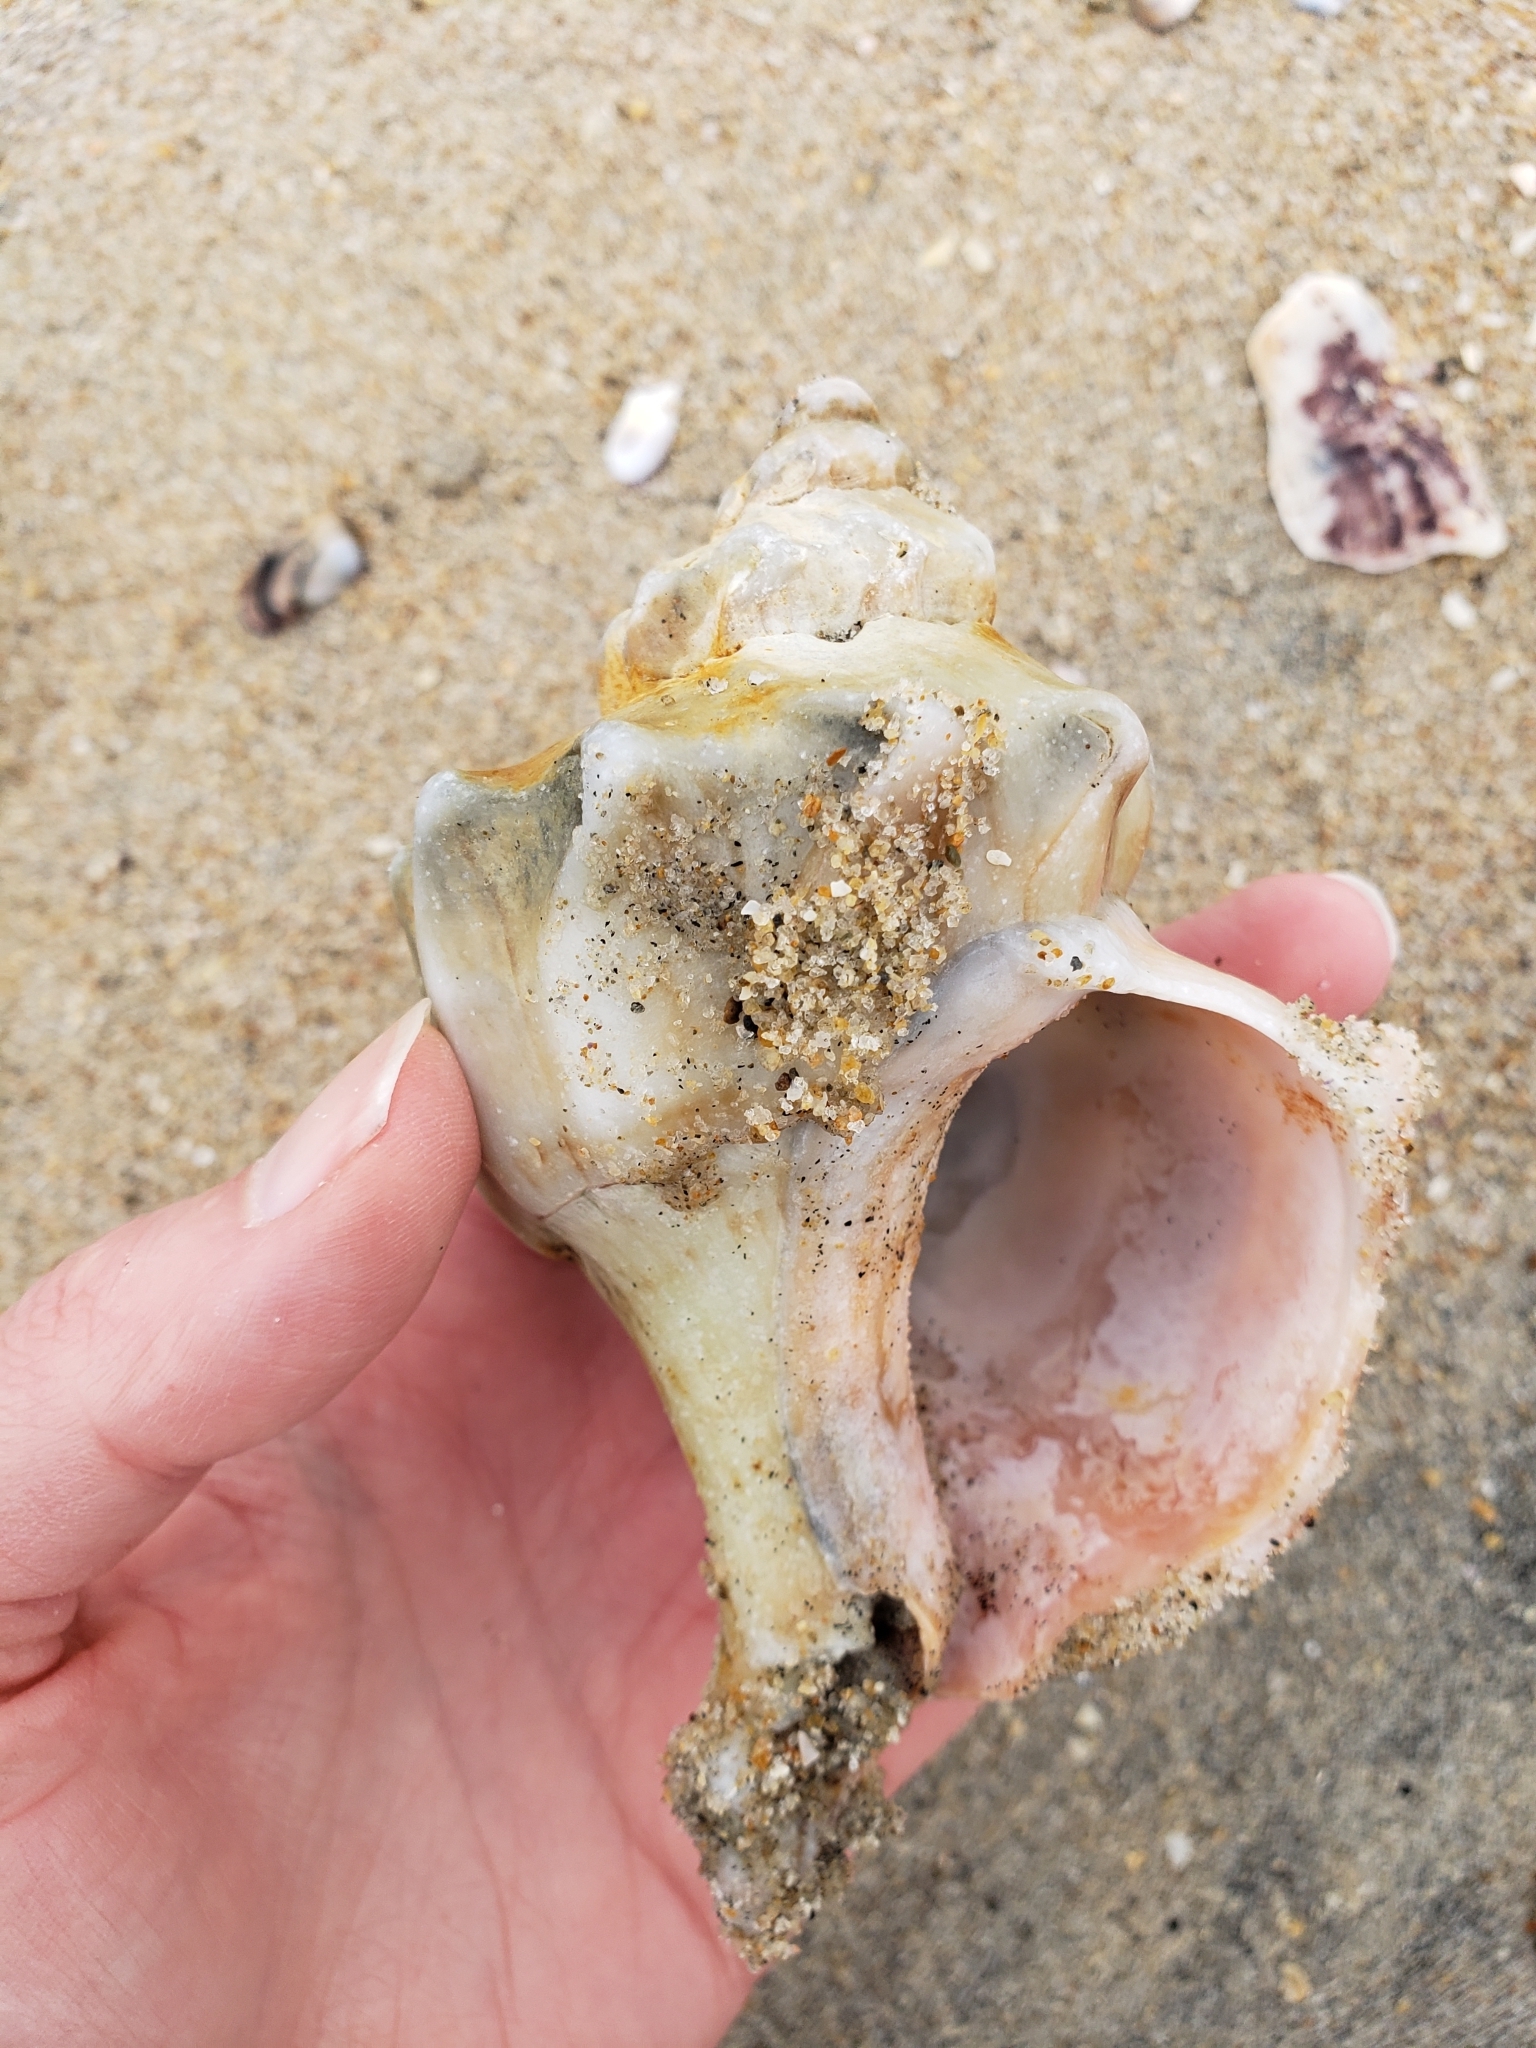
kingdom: Animalia
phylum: Mollusca
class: Gastropoda
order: Neogastropoda
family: Muricidae
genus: Forreria
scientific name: Forreria belcheri
